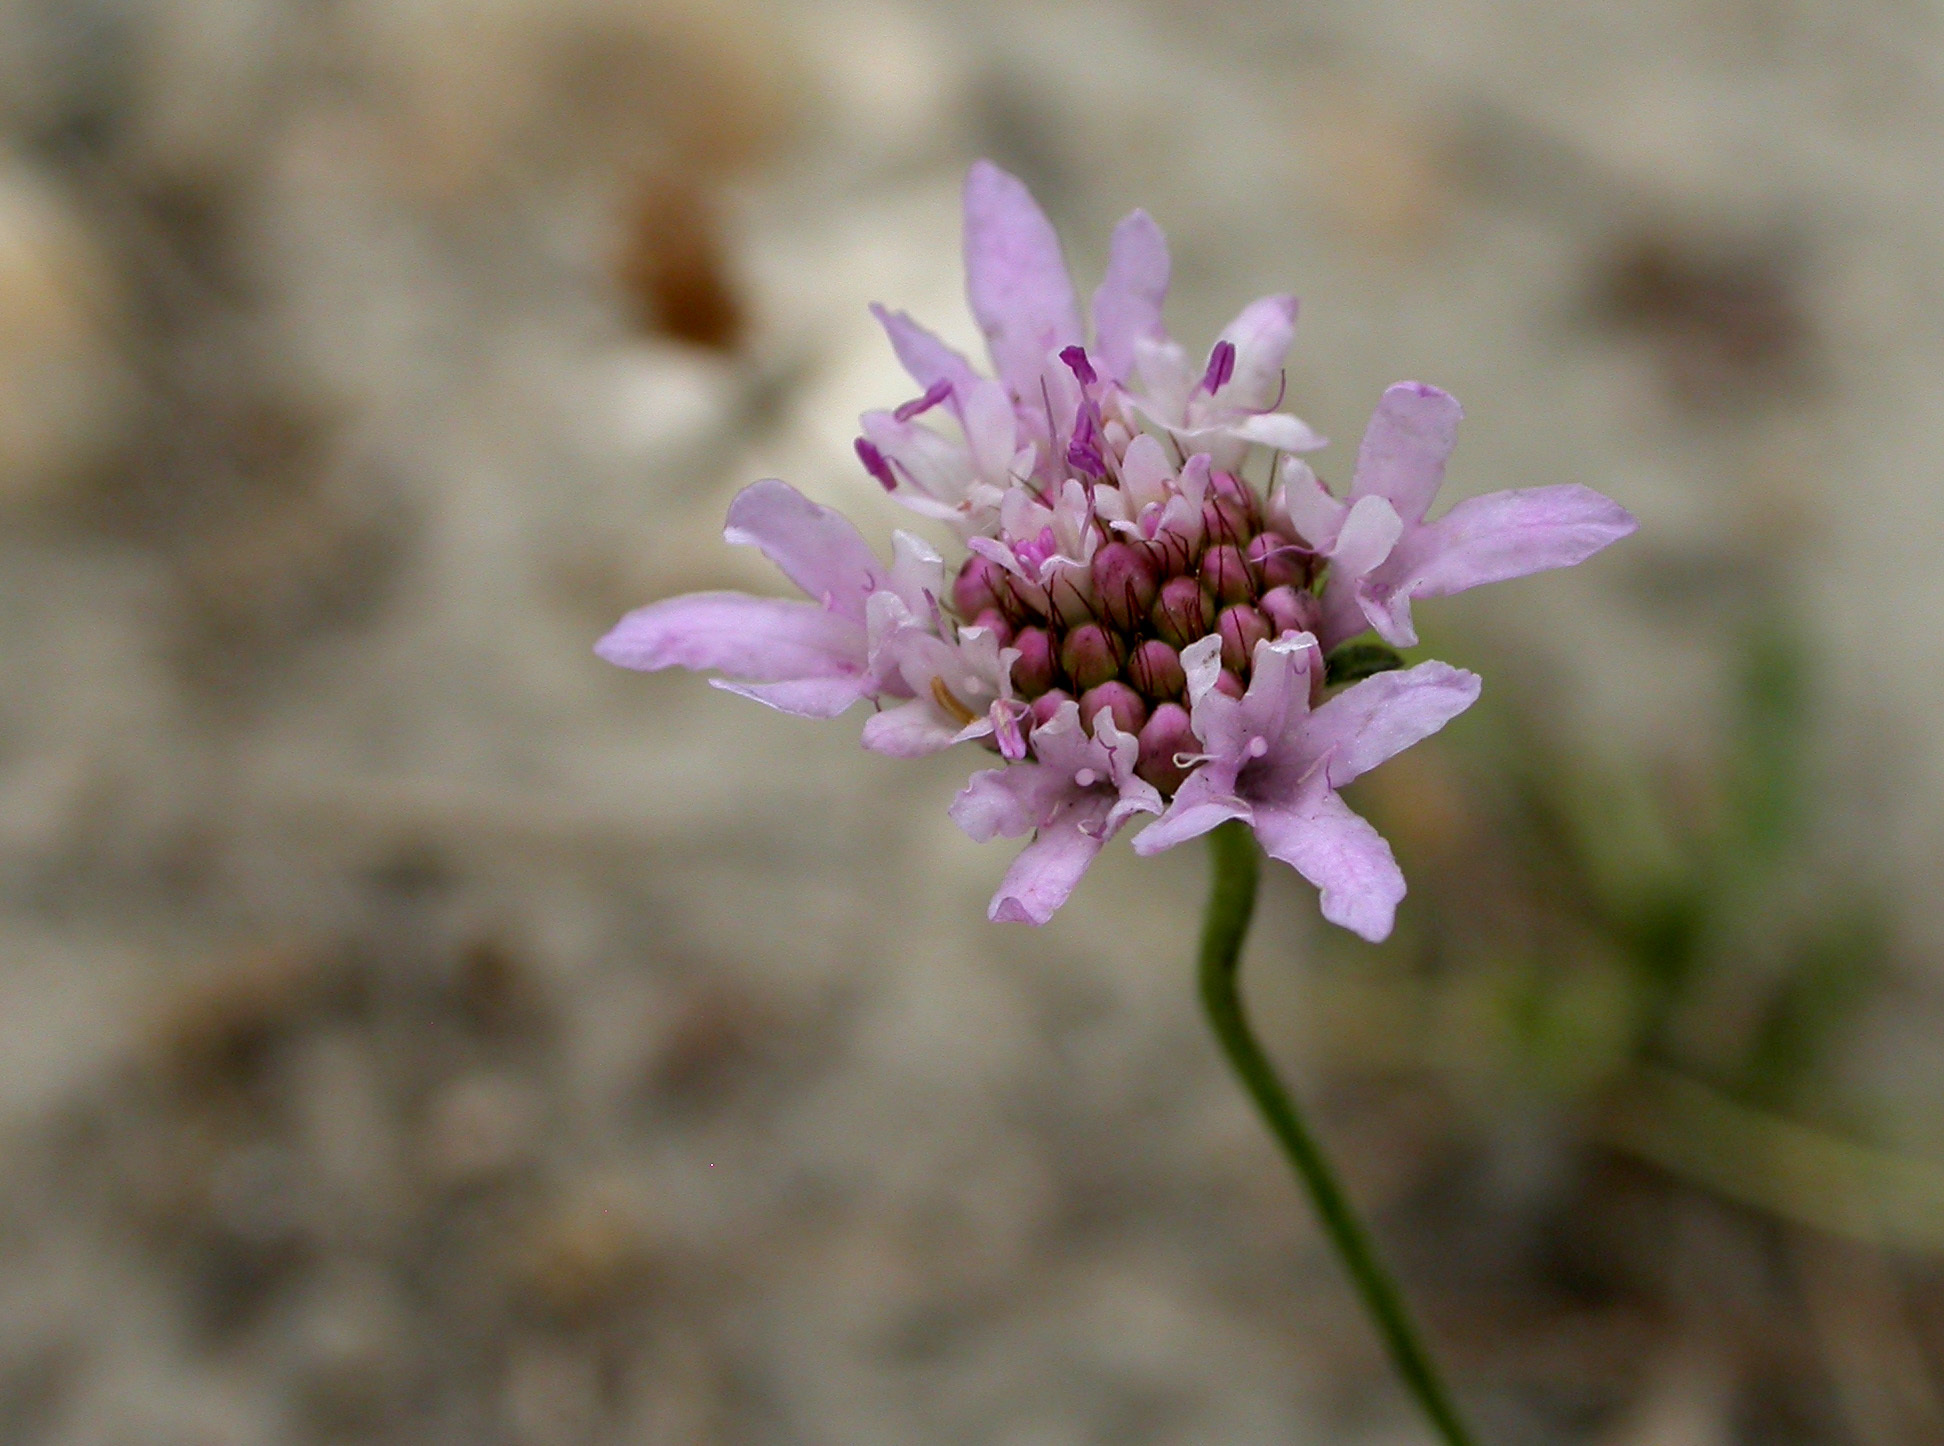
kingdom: Plantae
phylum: Tracheophyta
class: Magnoliopsida
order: Dipsacales
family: Caprifoliaceae
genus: Sixalix
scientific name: Sixalix atropurpurea
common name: Sweet scabious
